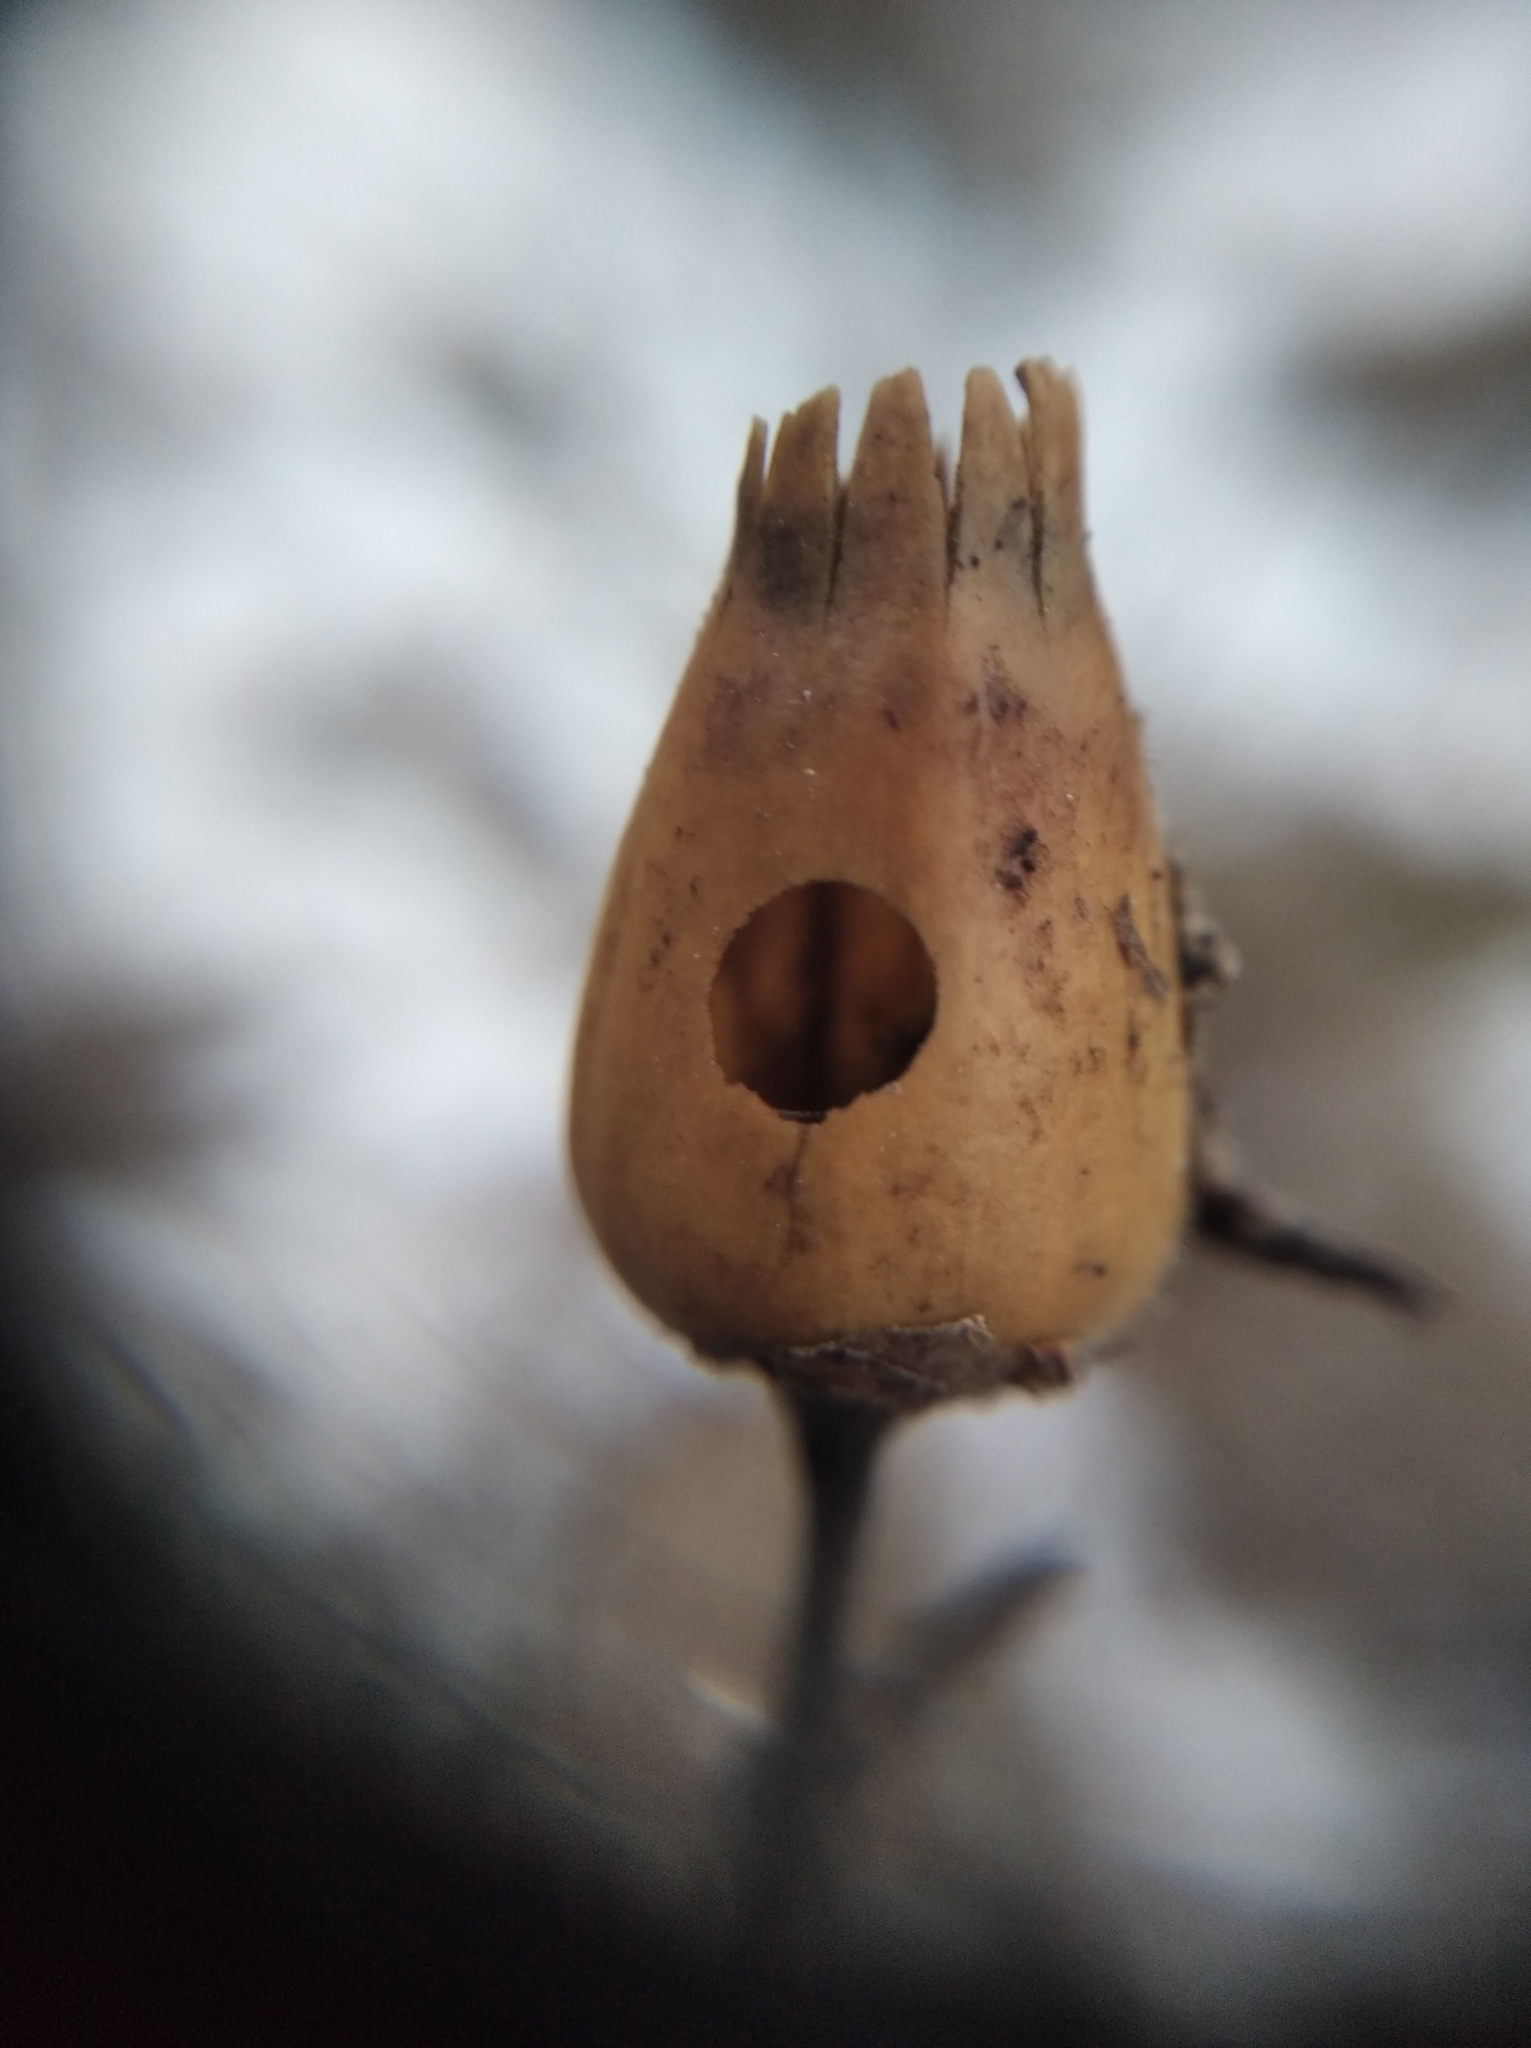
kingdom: Plantae
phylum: Tracheophyta
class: Magnoliopsida
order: Caryophyllales
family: Caryophyllaceae
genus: Silene
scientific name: Silene latifolia
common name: White campion
